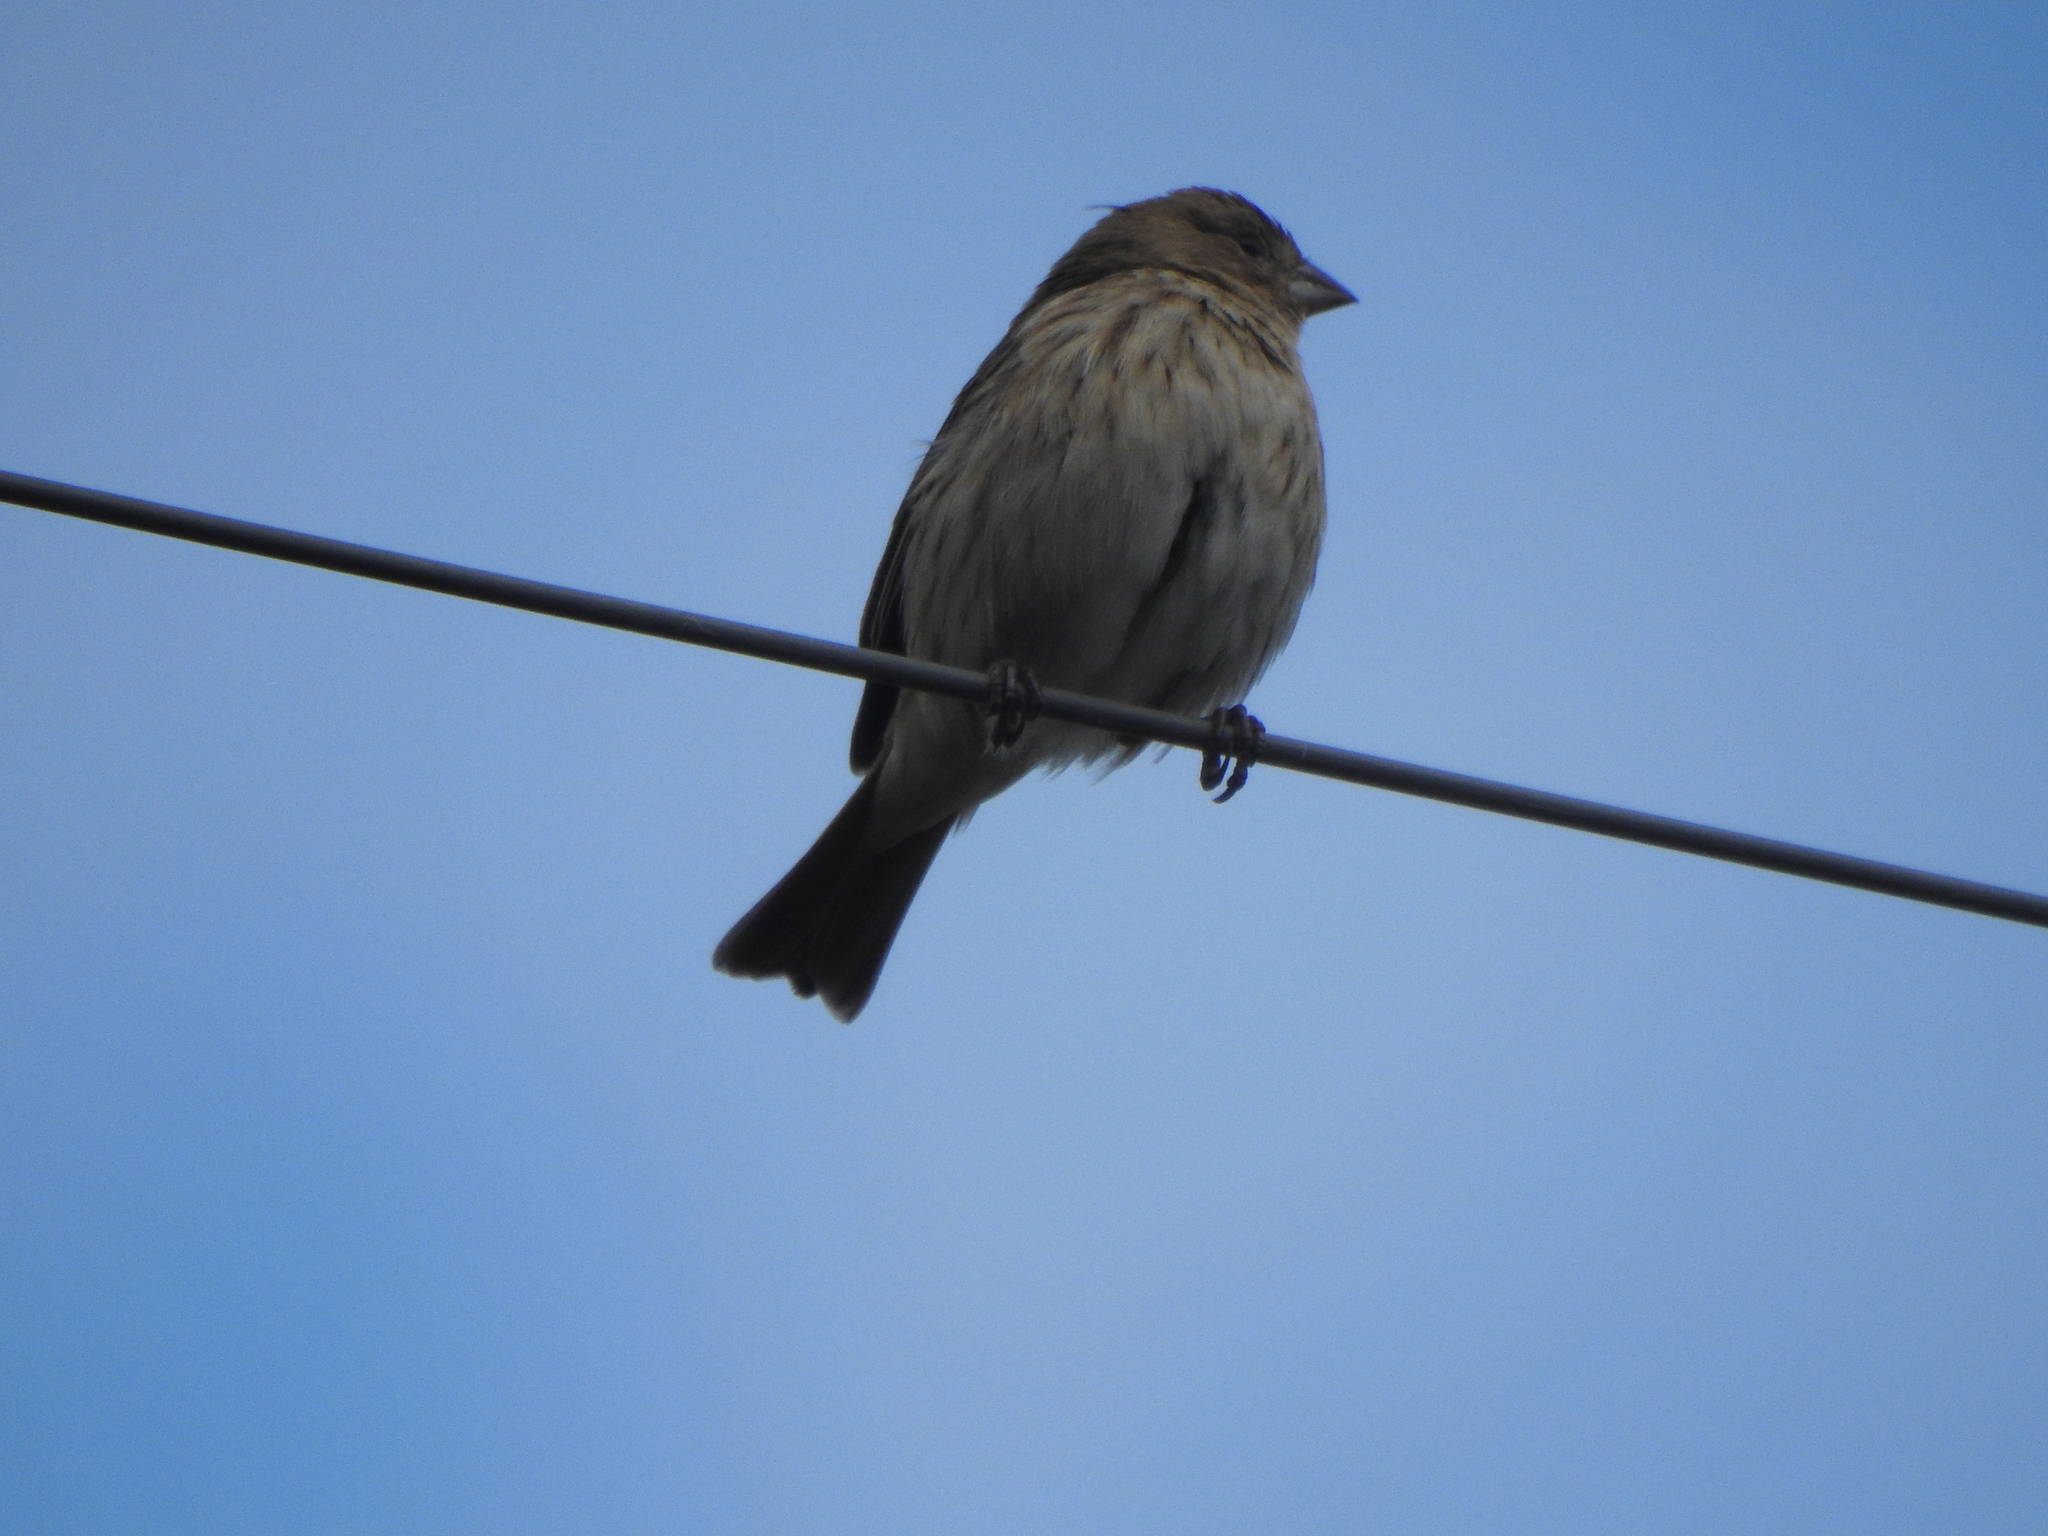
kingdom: Animalia
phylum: Chordata
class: Aves
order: Passeriformes
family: Thraupidae
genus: Sicalis
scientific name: Sicalis flaveola
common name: Saffron finch
